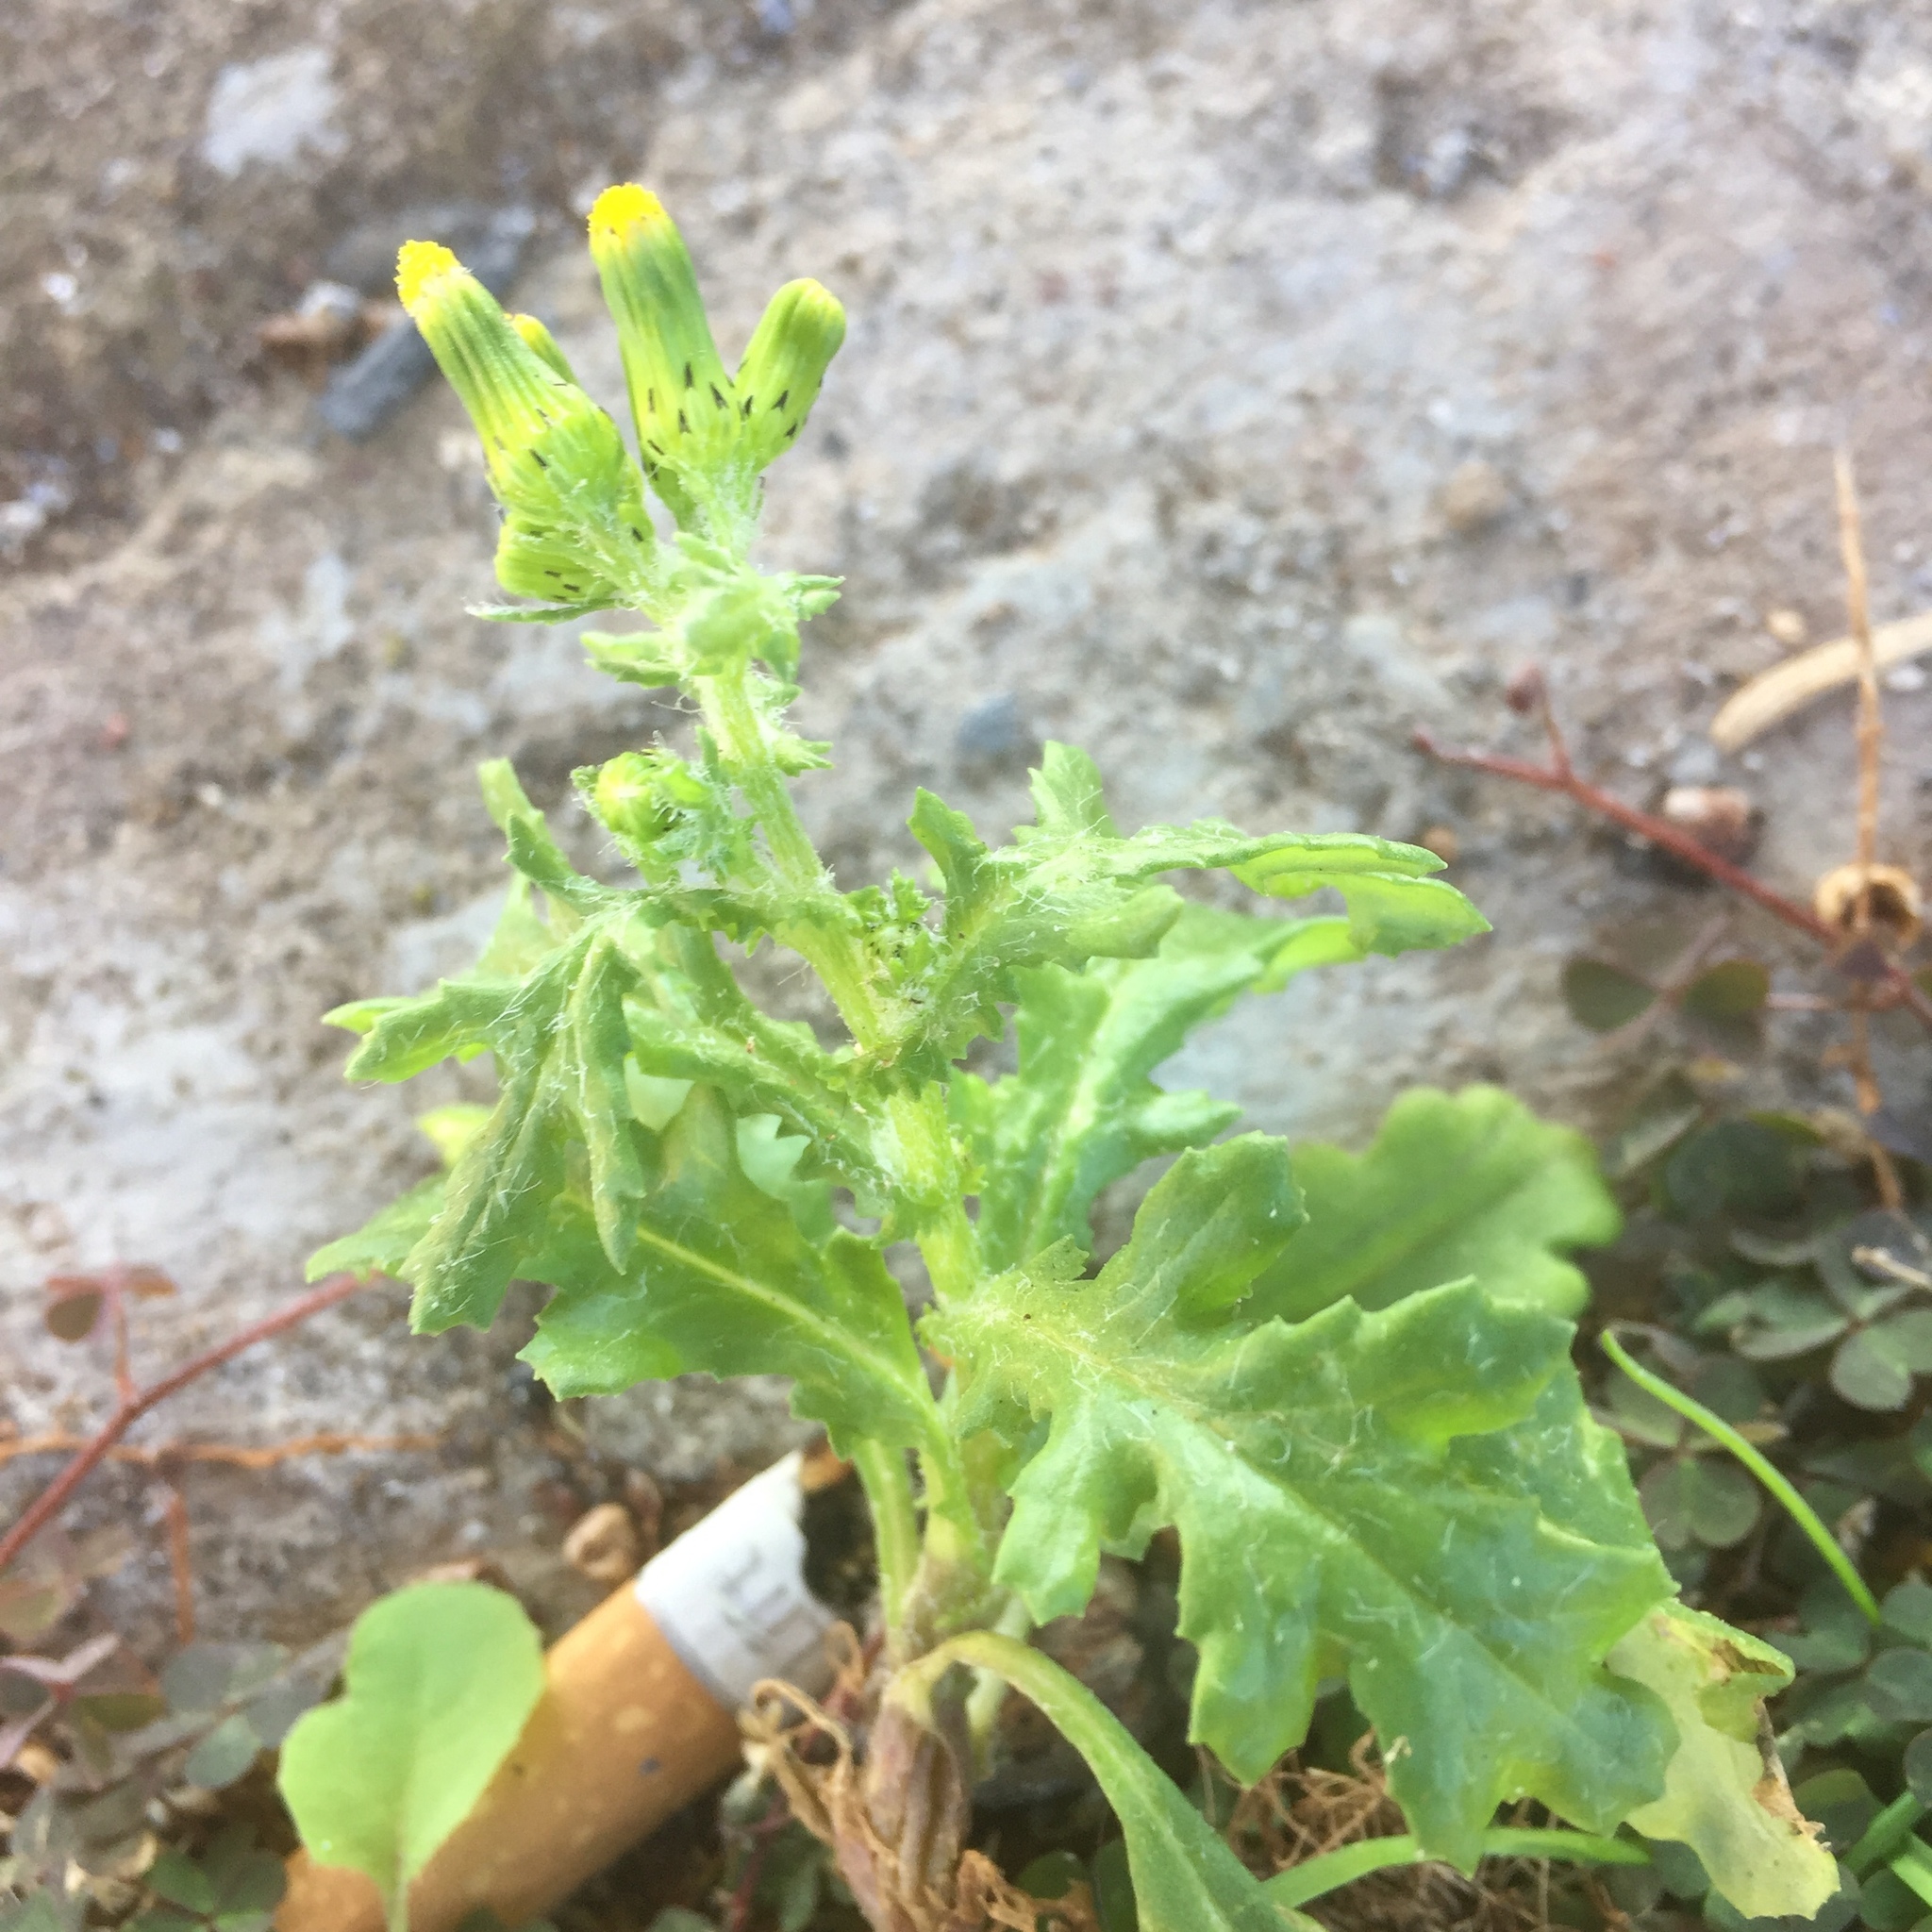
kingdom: Plantae
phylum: Tracheophyta
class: Magnoliopsida
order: Asterales
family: Asteraceae
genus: Senecio
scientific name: Senecio vulgaris
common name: Old-man-in-the-spring
